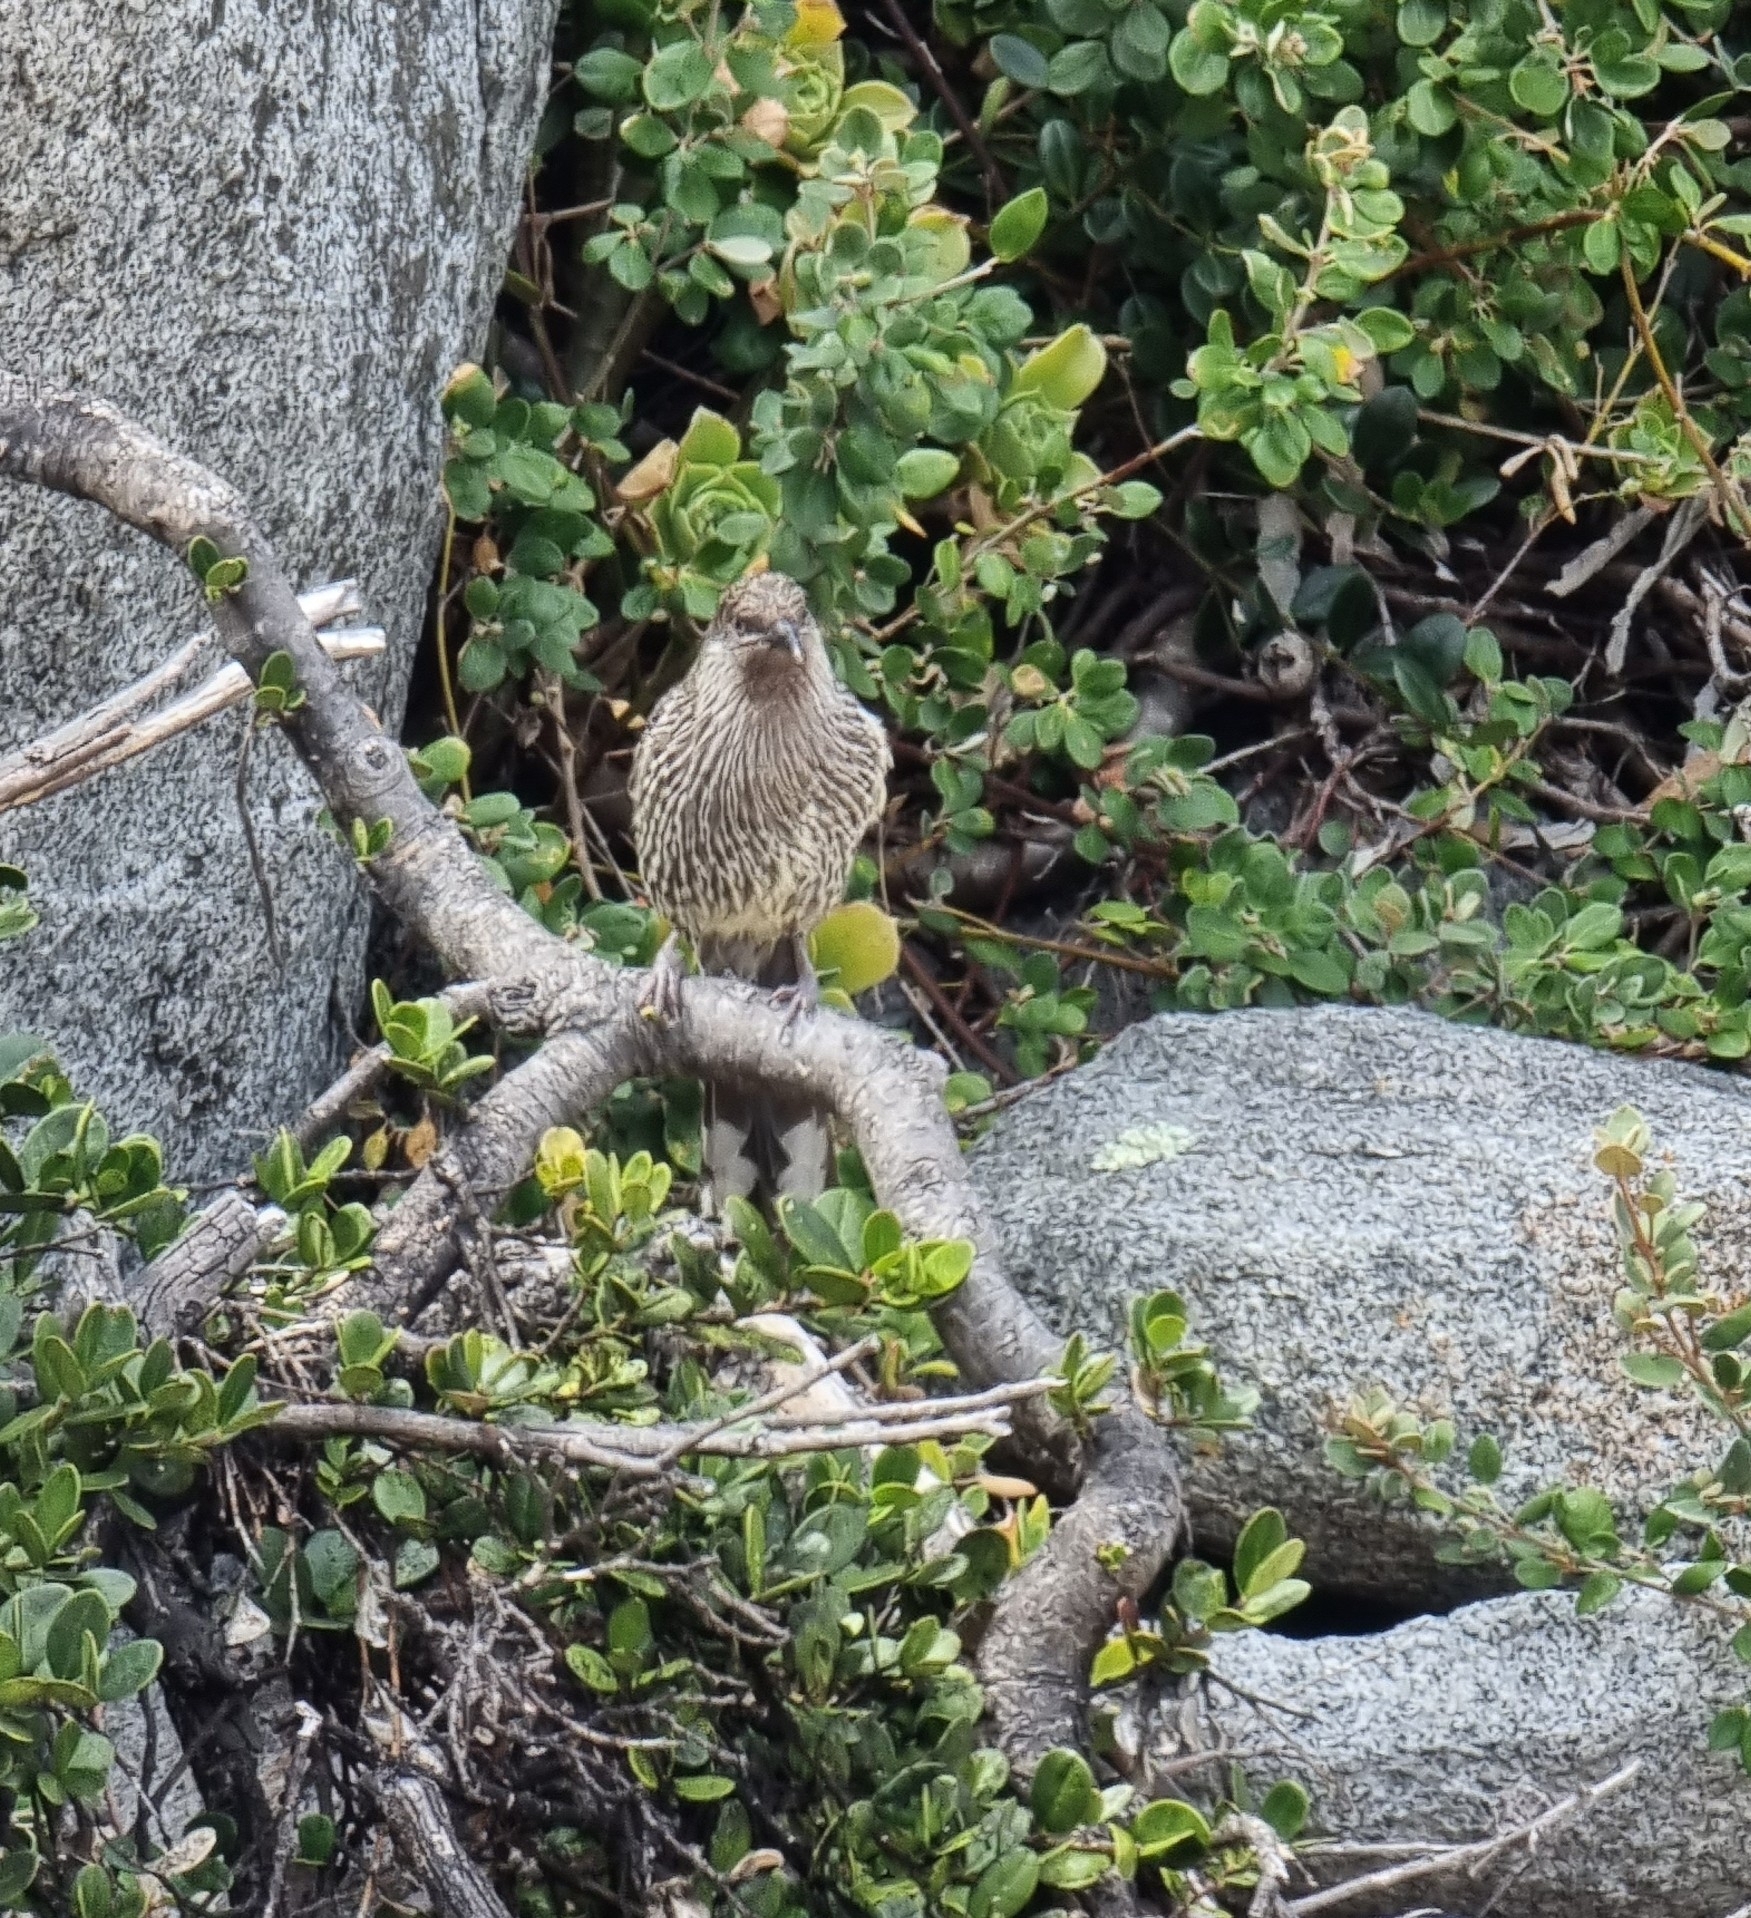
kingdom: Animalia
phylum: Chordata
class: Aves
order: Passeriformes
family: Meliphagidae
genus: Anthochaera
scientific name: Anthochaera chrysoptera
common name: Little wattlebird
